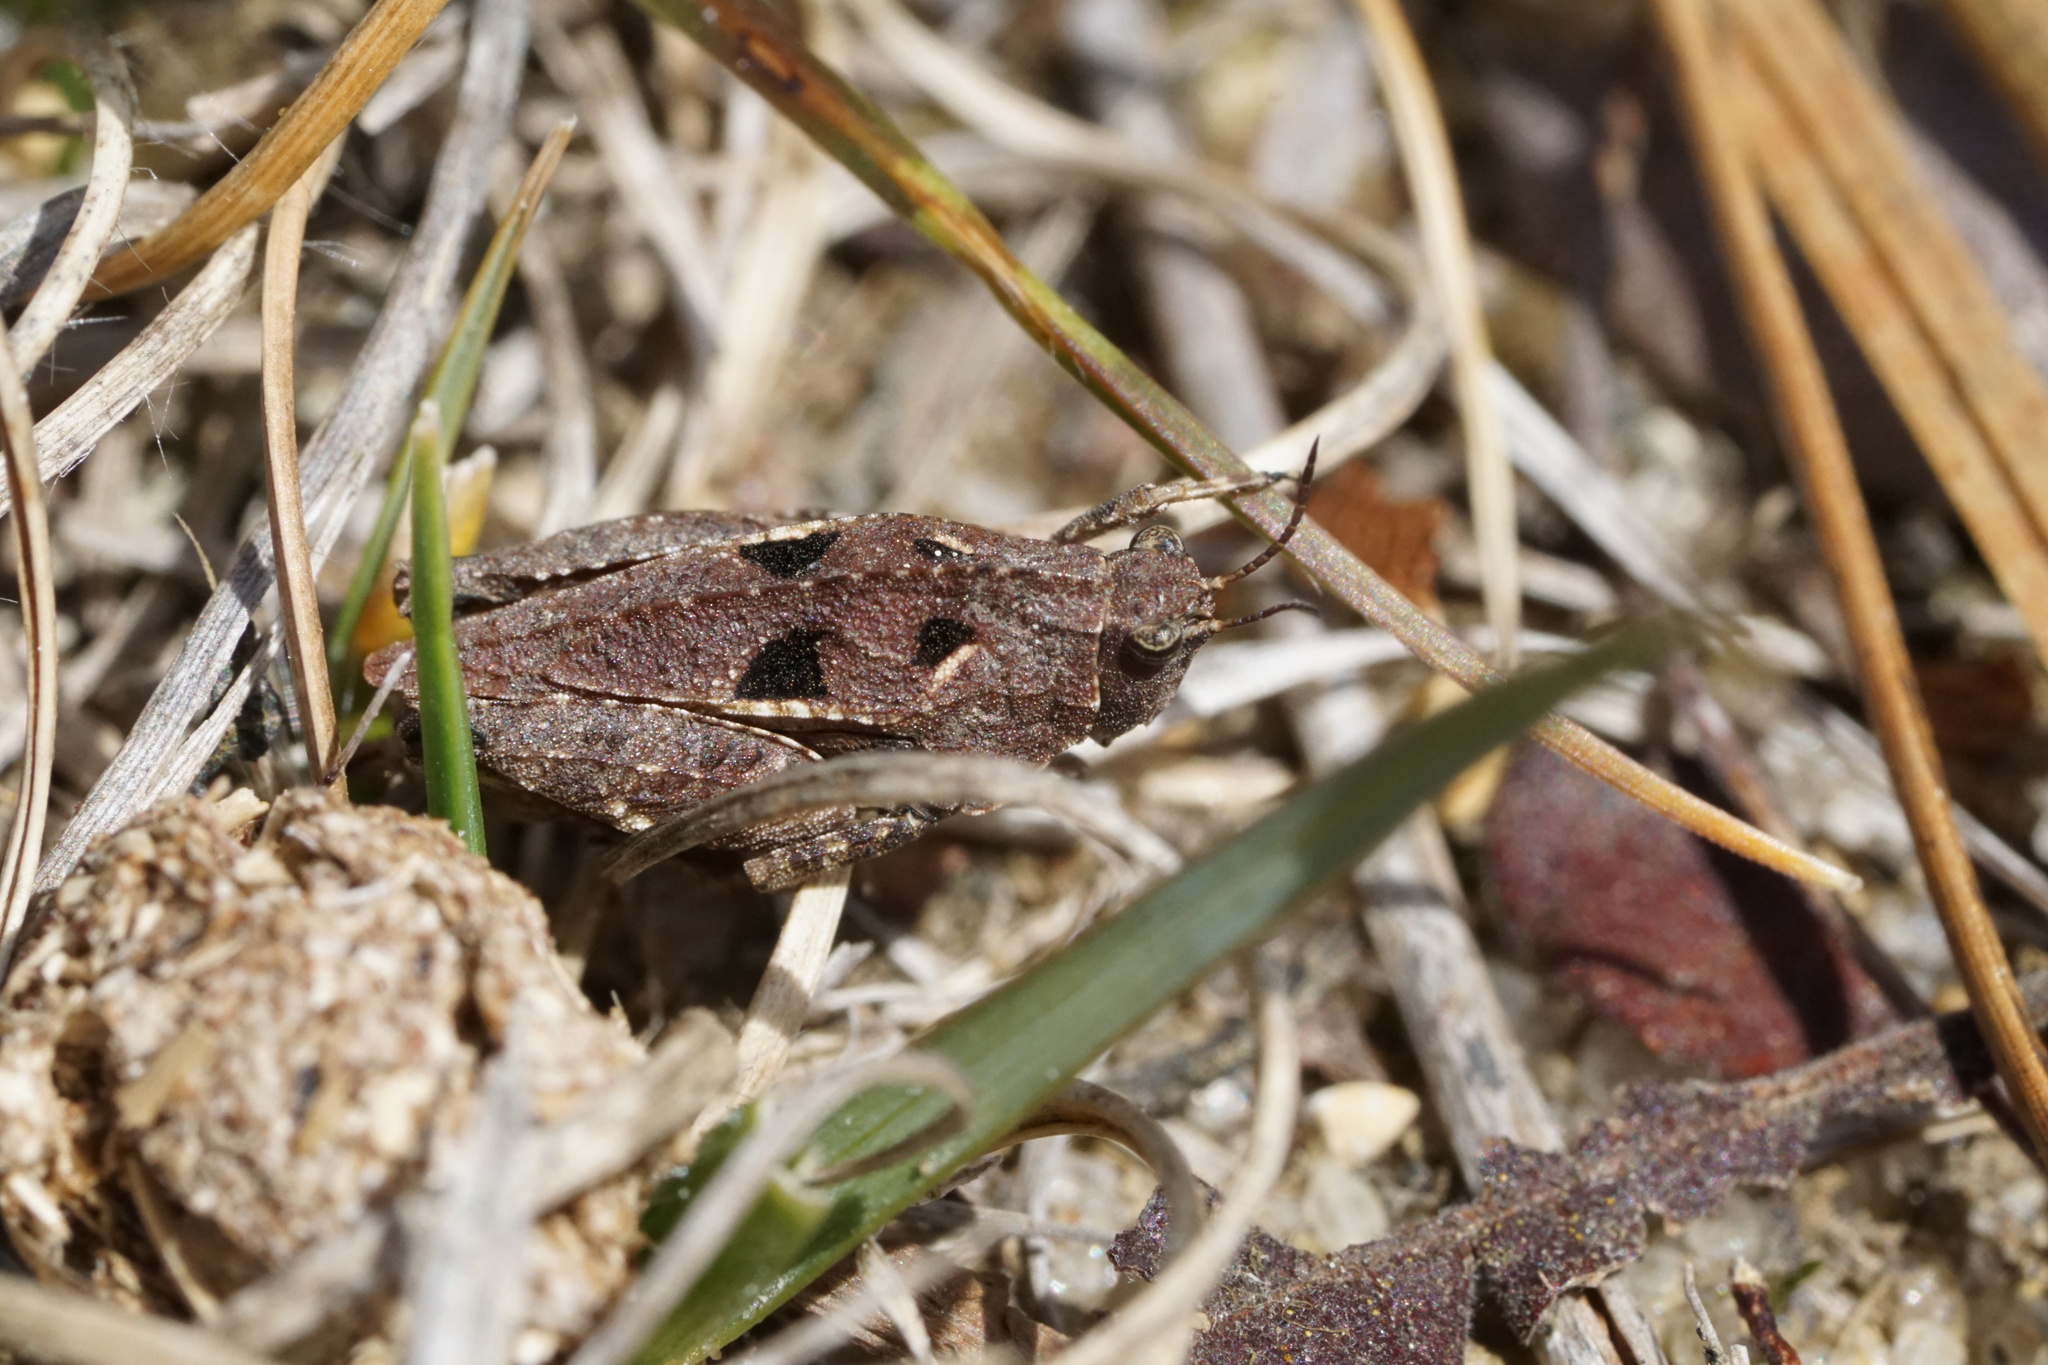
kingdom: Animalia
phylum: Arthropoda
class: Insecta
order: Orthoptera
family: Tetrigidae
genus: Nomotettix
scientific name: Nomotettix cristatus
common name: Crested grouse locust
